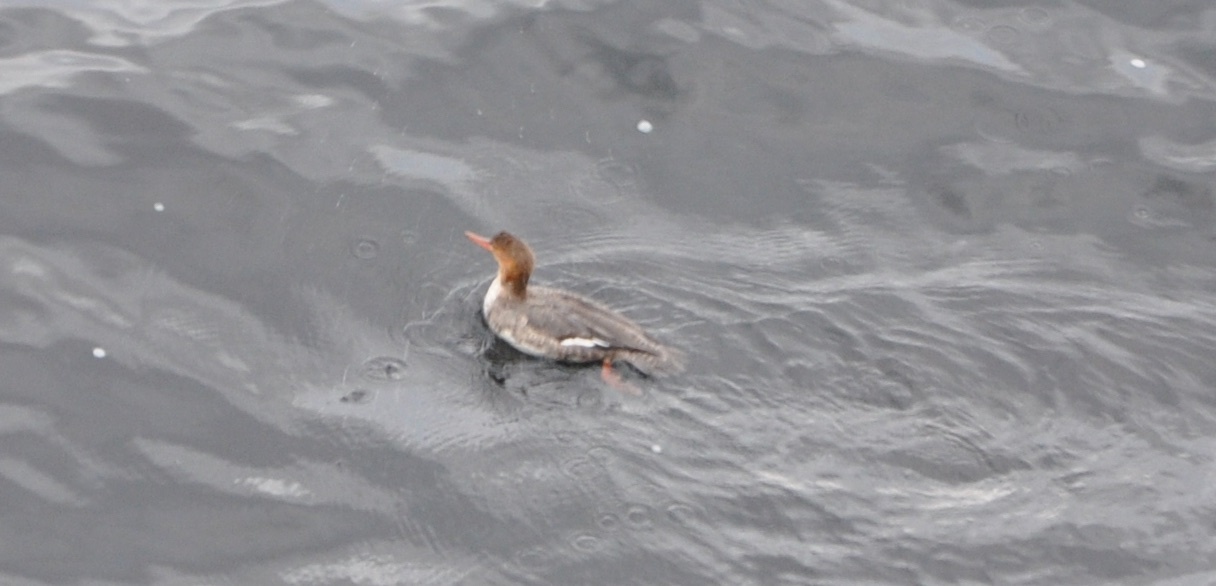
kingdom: Animalia
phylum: Chordata
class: Aves
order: Anseriformes
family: Anatidae
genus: Mergus
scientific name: Mergus serrator
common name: Red-breasted merganser
